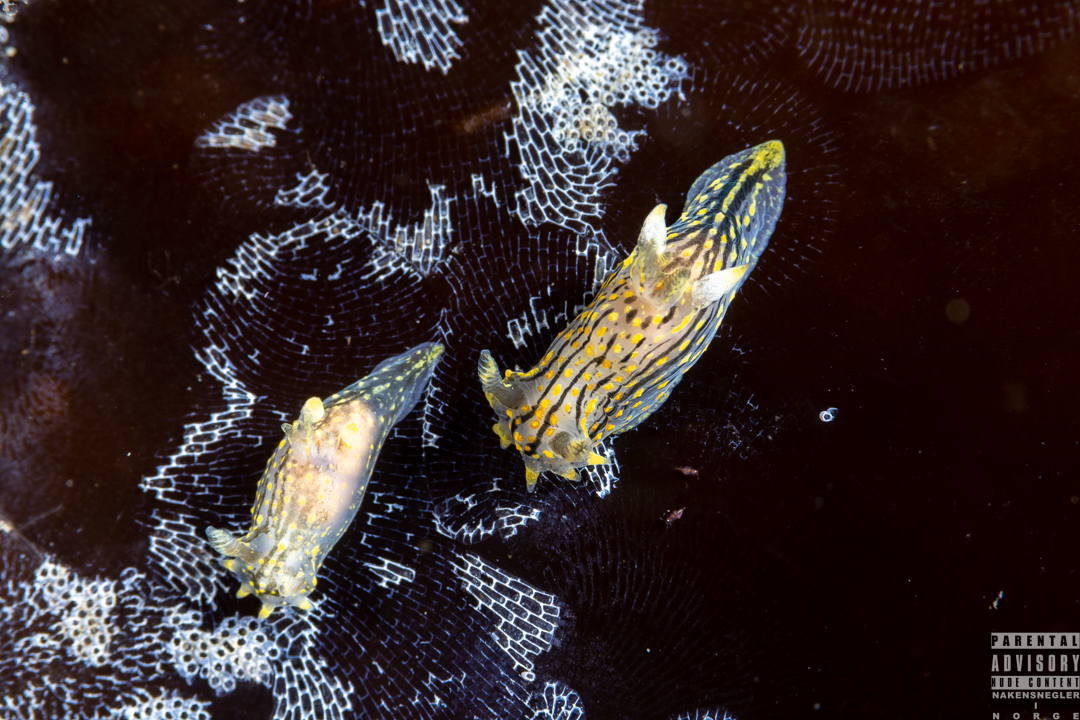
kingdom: Animalia
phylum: Mollusca
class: Gastropoda
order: Nudibranchia
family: Polyceridae
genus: Polycera
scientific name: Polycera quadrilineata
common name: Four-striped polycera
